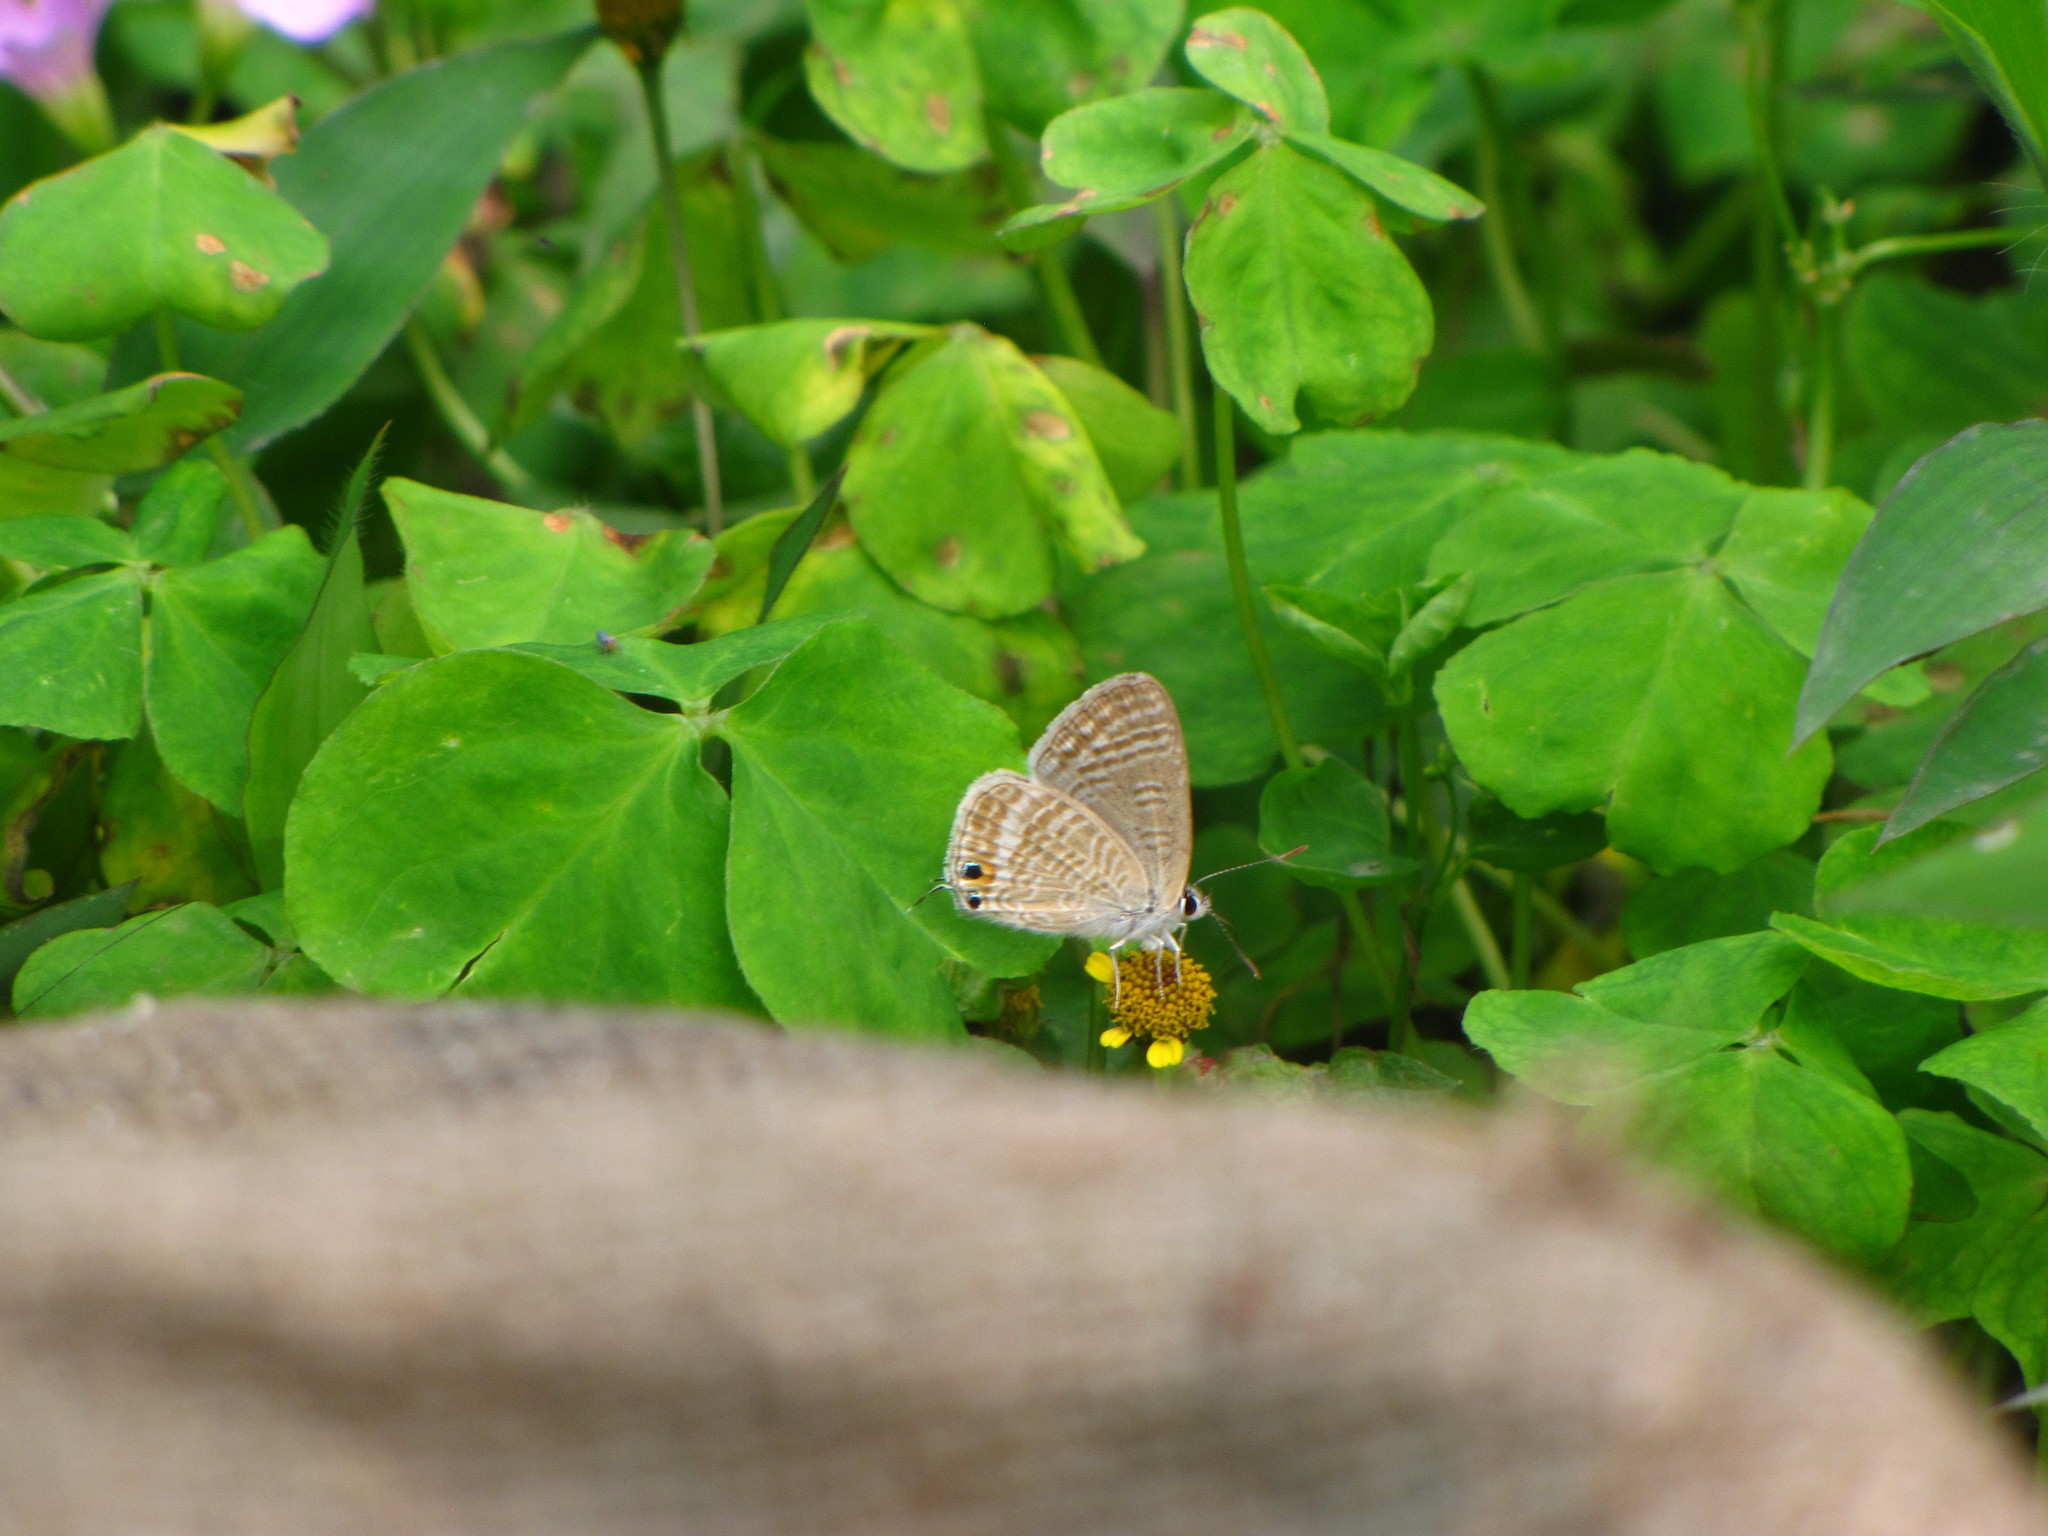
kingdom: Animalia
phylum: Arthropoda
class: Insecta
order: Lepidoptera
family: Lycaenidae
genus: Lampides
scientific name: Lampides boeticus
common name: Long-tailed blue
